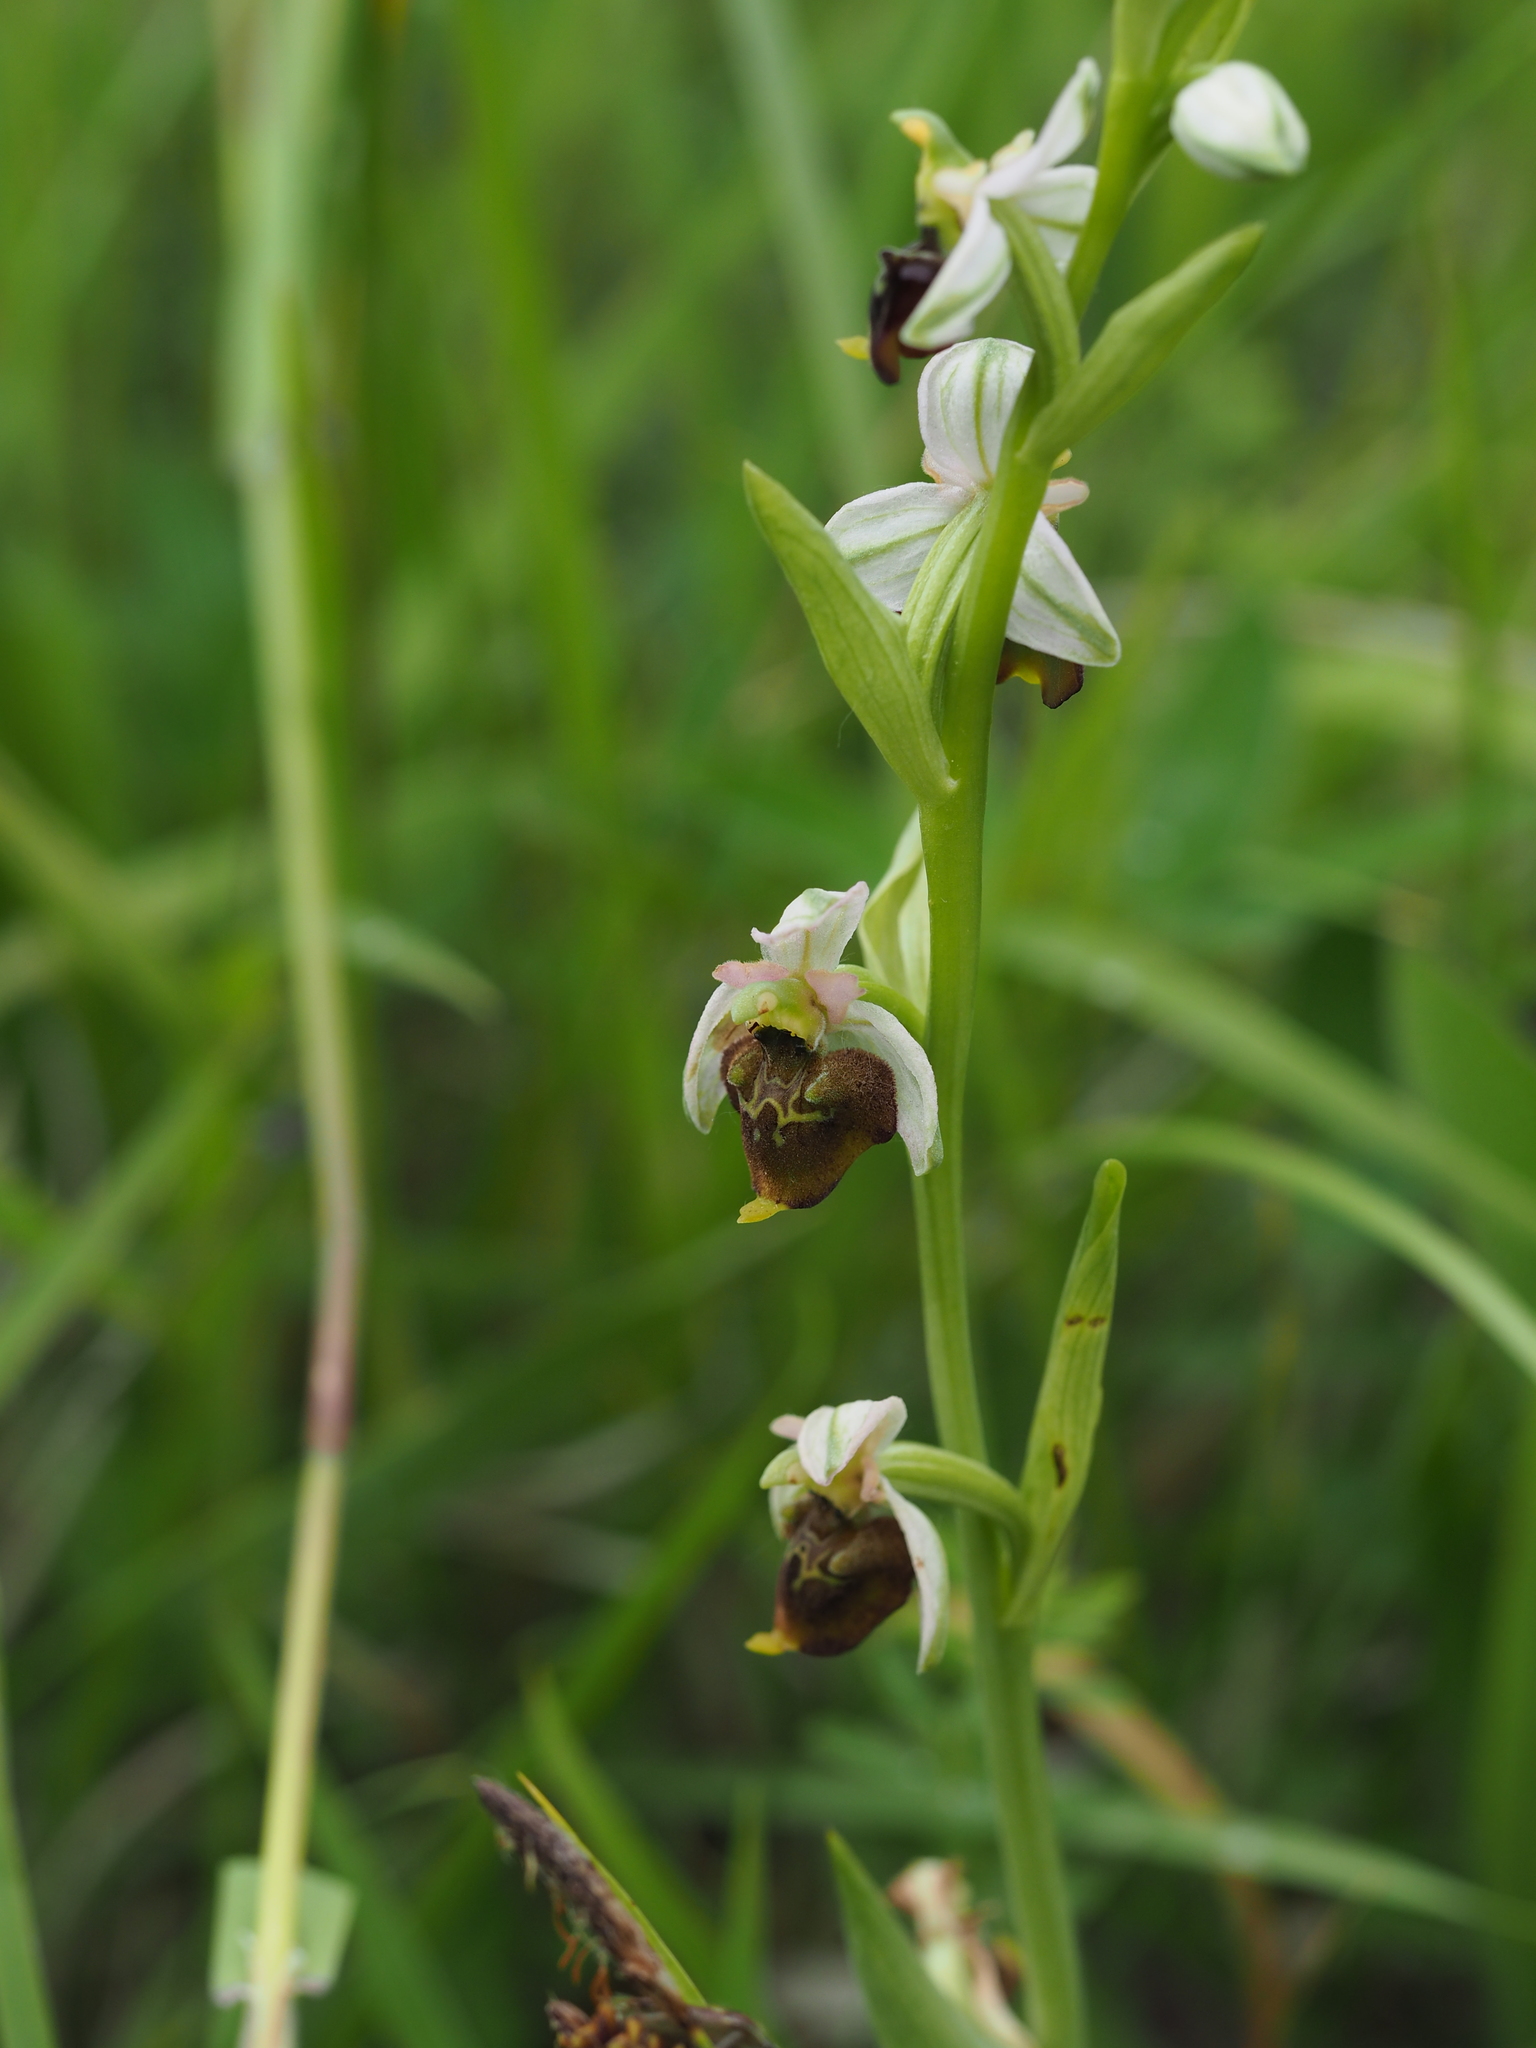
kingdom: Plantae
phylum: Tracheophyta
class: Liliopsida
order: Asparagales
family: Orchidaceae
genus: Ophrys
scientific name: Ophrys holosericea
